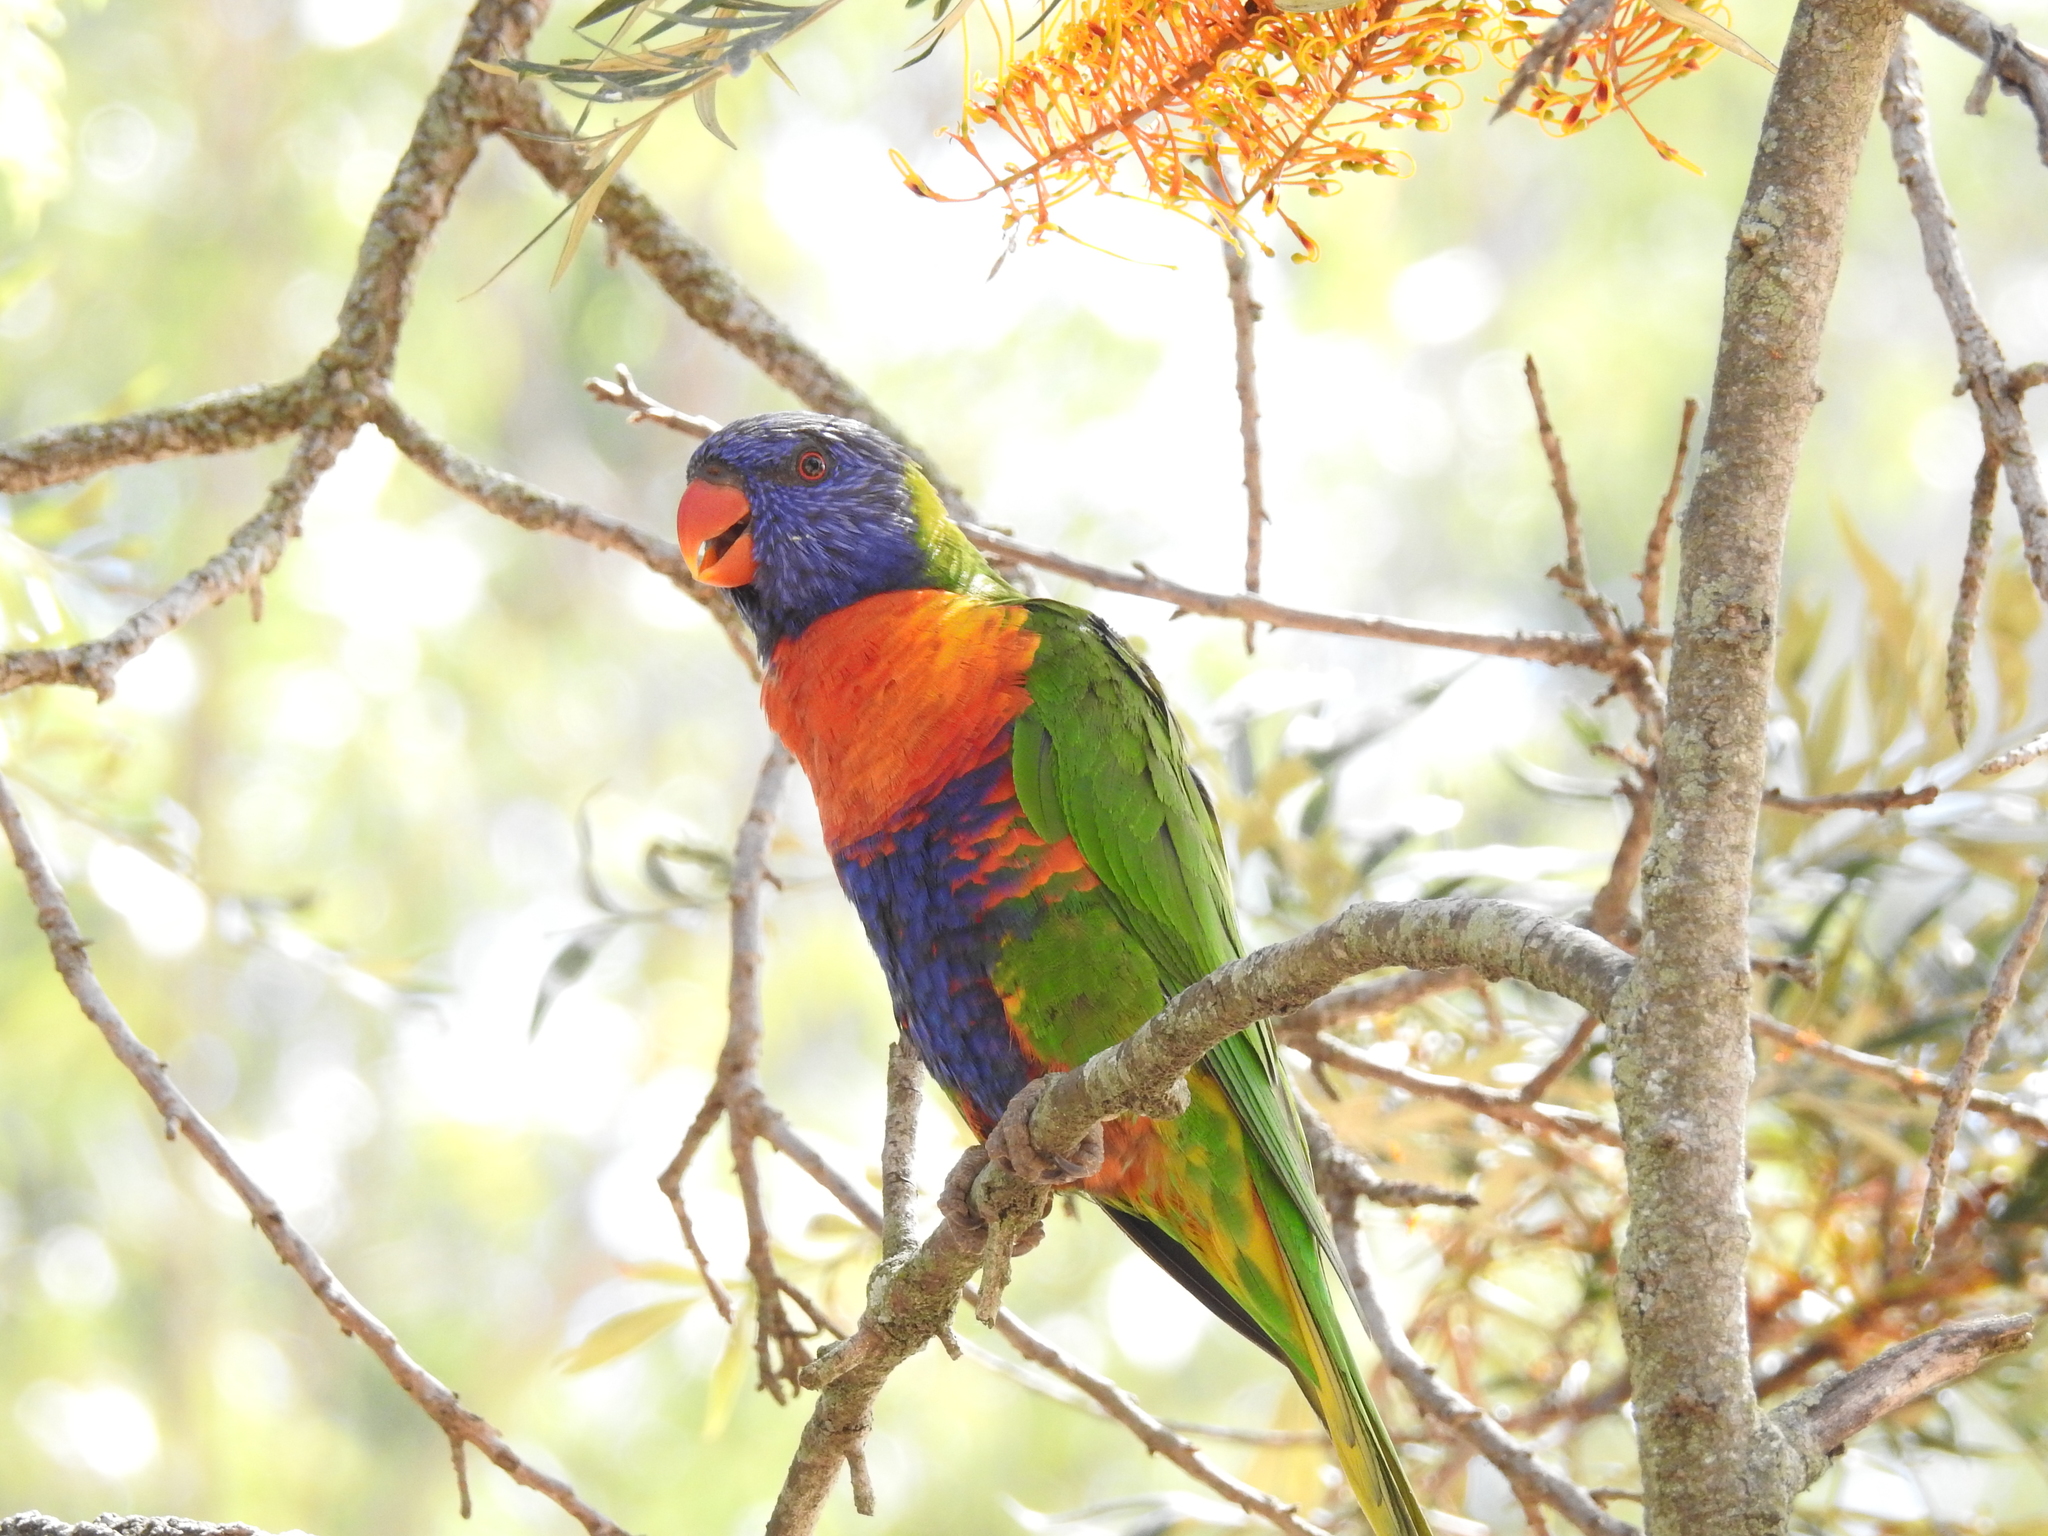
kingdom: Animalia
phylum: Chordata
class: Aves
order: Psittaciformes
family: Psittacidae
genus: Trichoglossus
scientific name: Trichoglossus haematodus
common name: Coconut lorikeet
